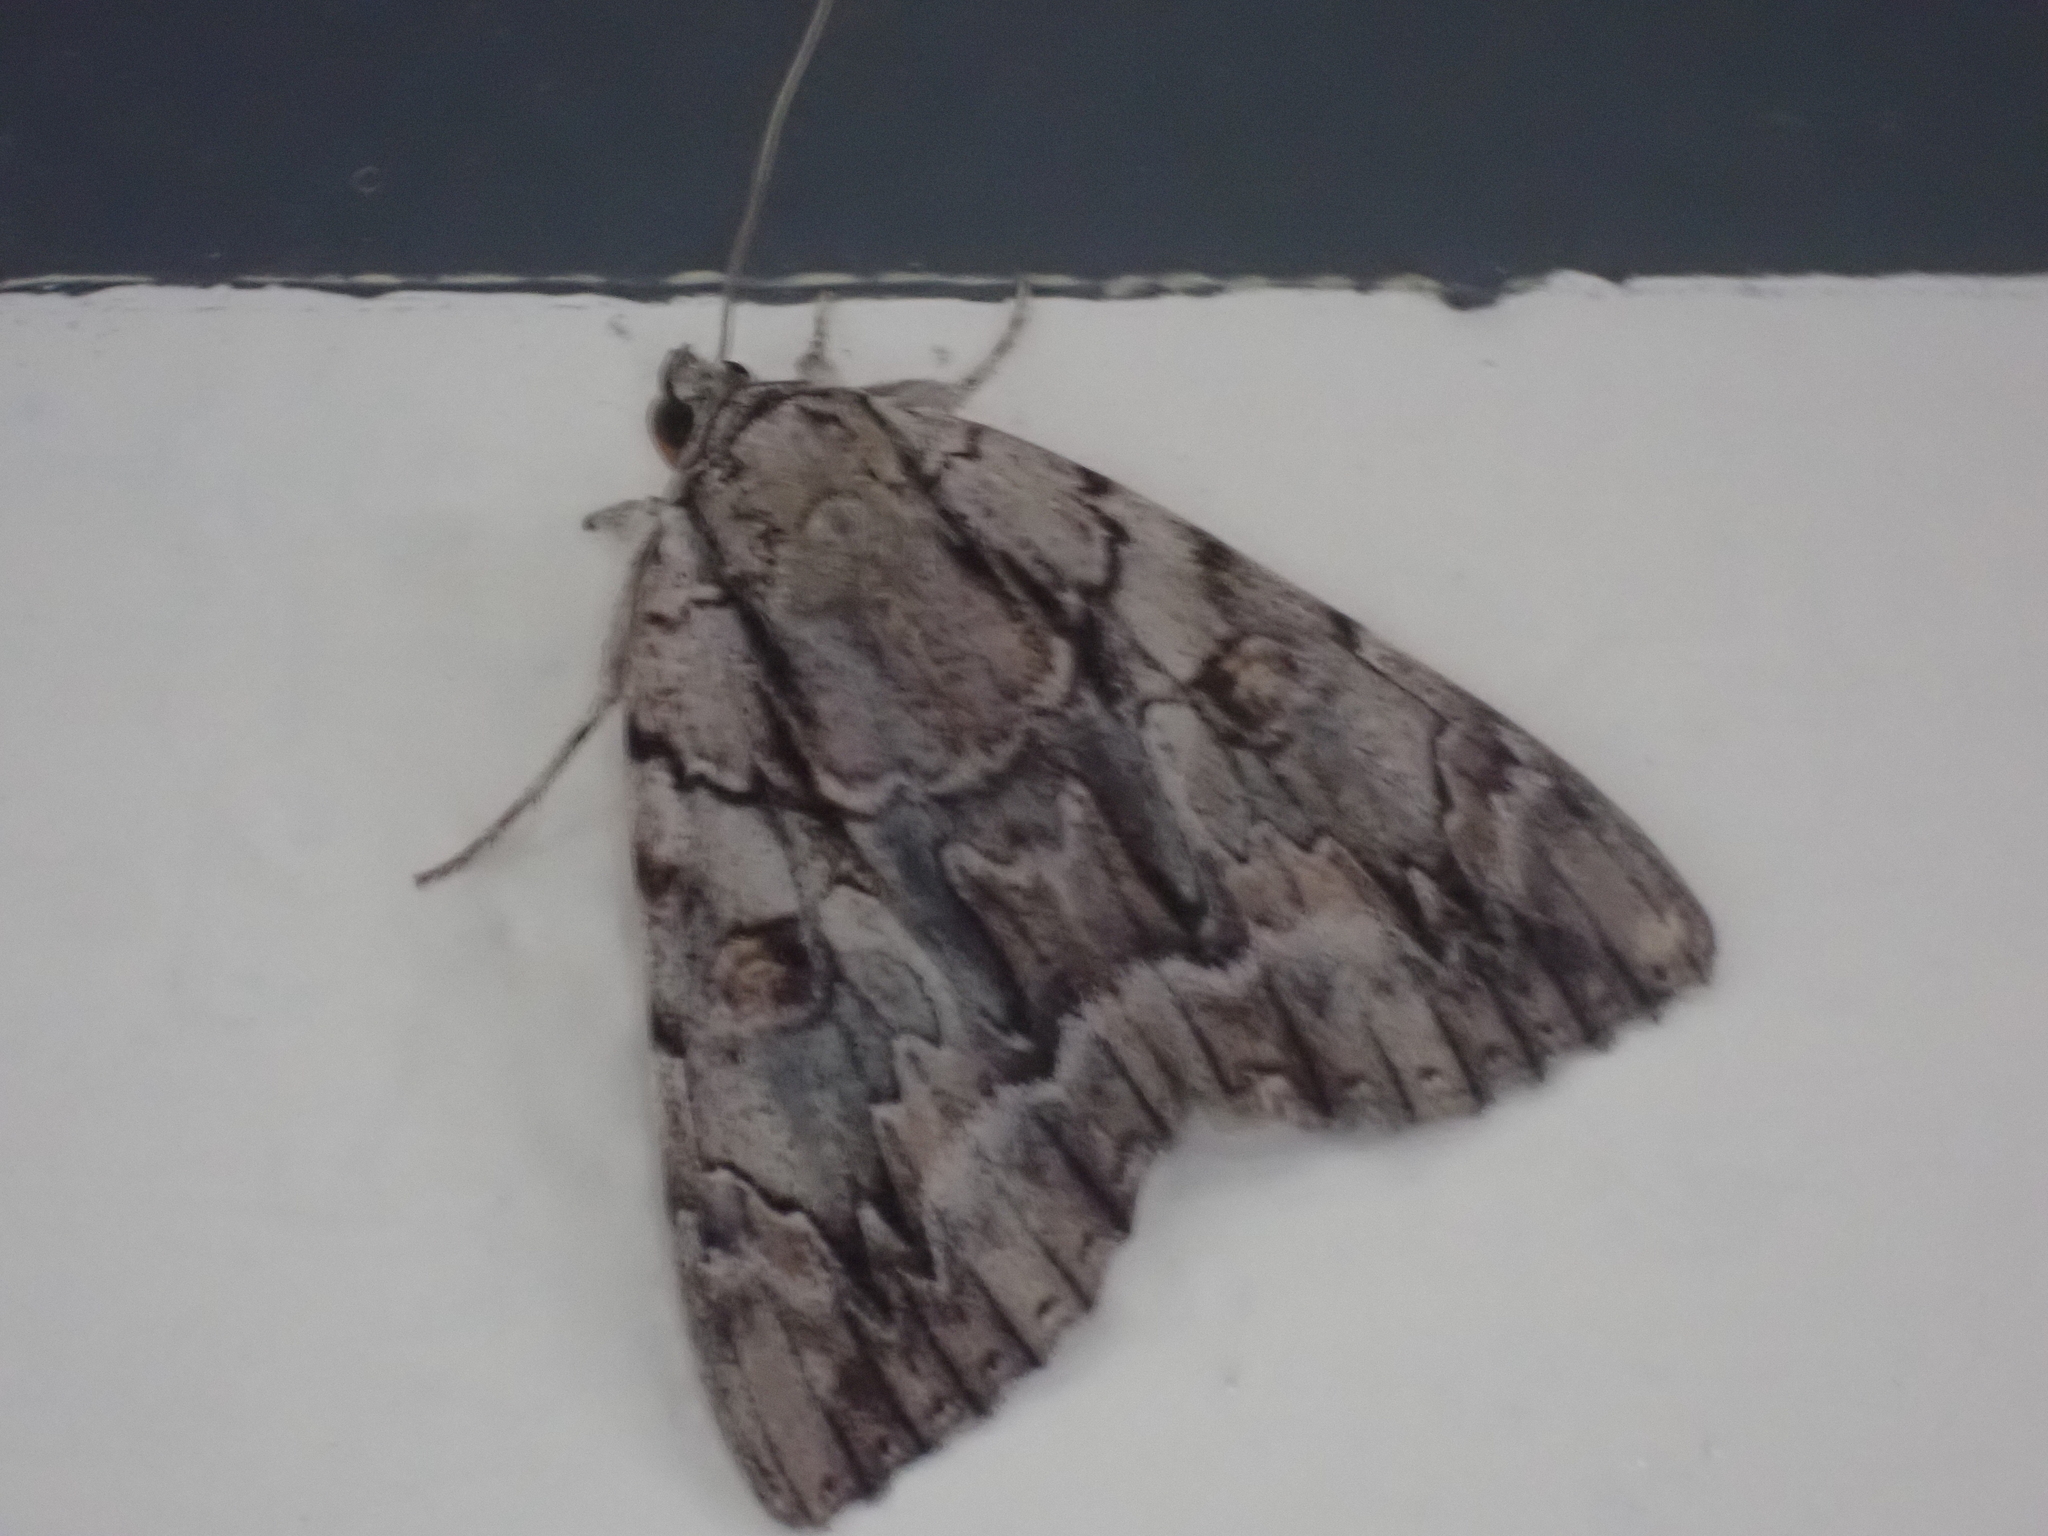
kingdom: Animalia
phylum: Arthropoda
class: Insecta
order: Lepidoptera
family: Erebidae
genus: Catocala
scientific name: Catocala retecta
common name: Yellow-gray underwing
